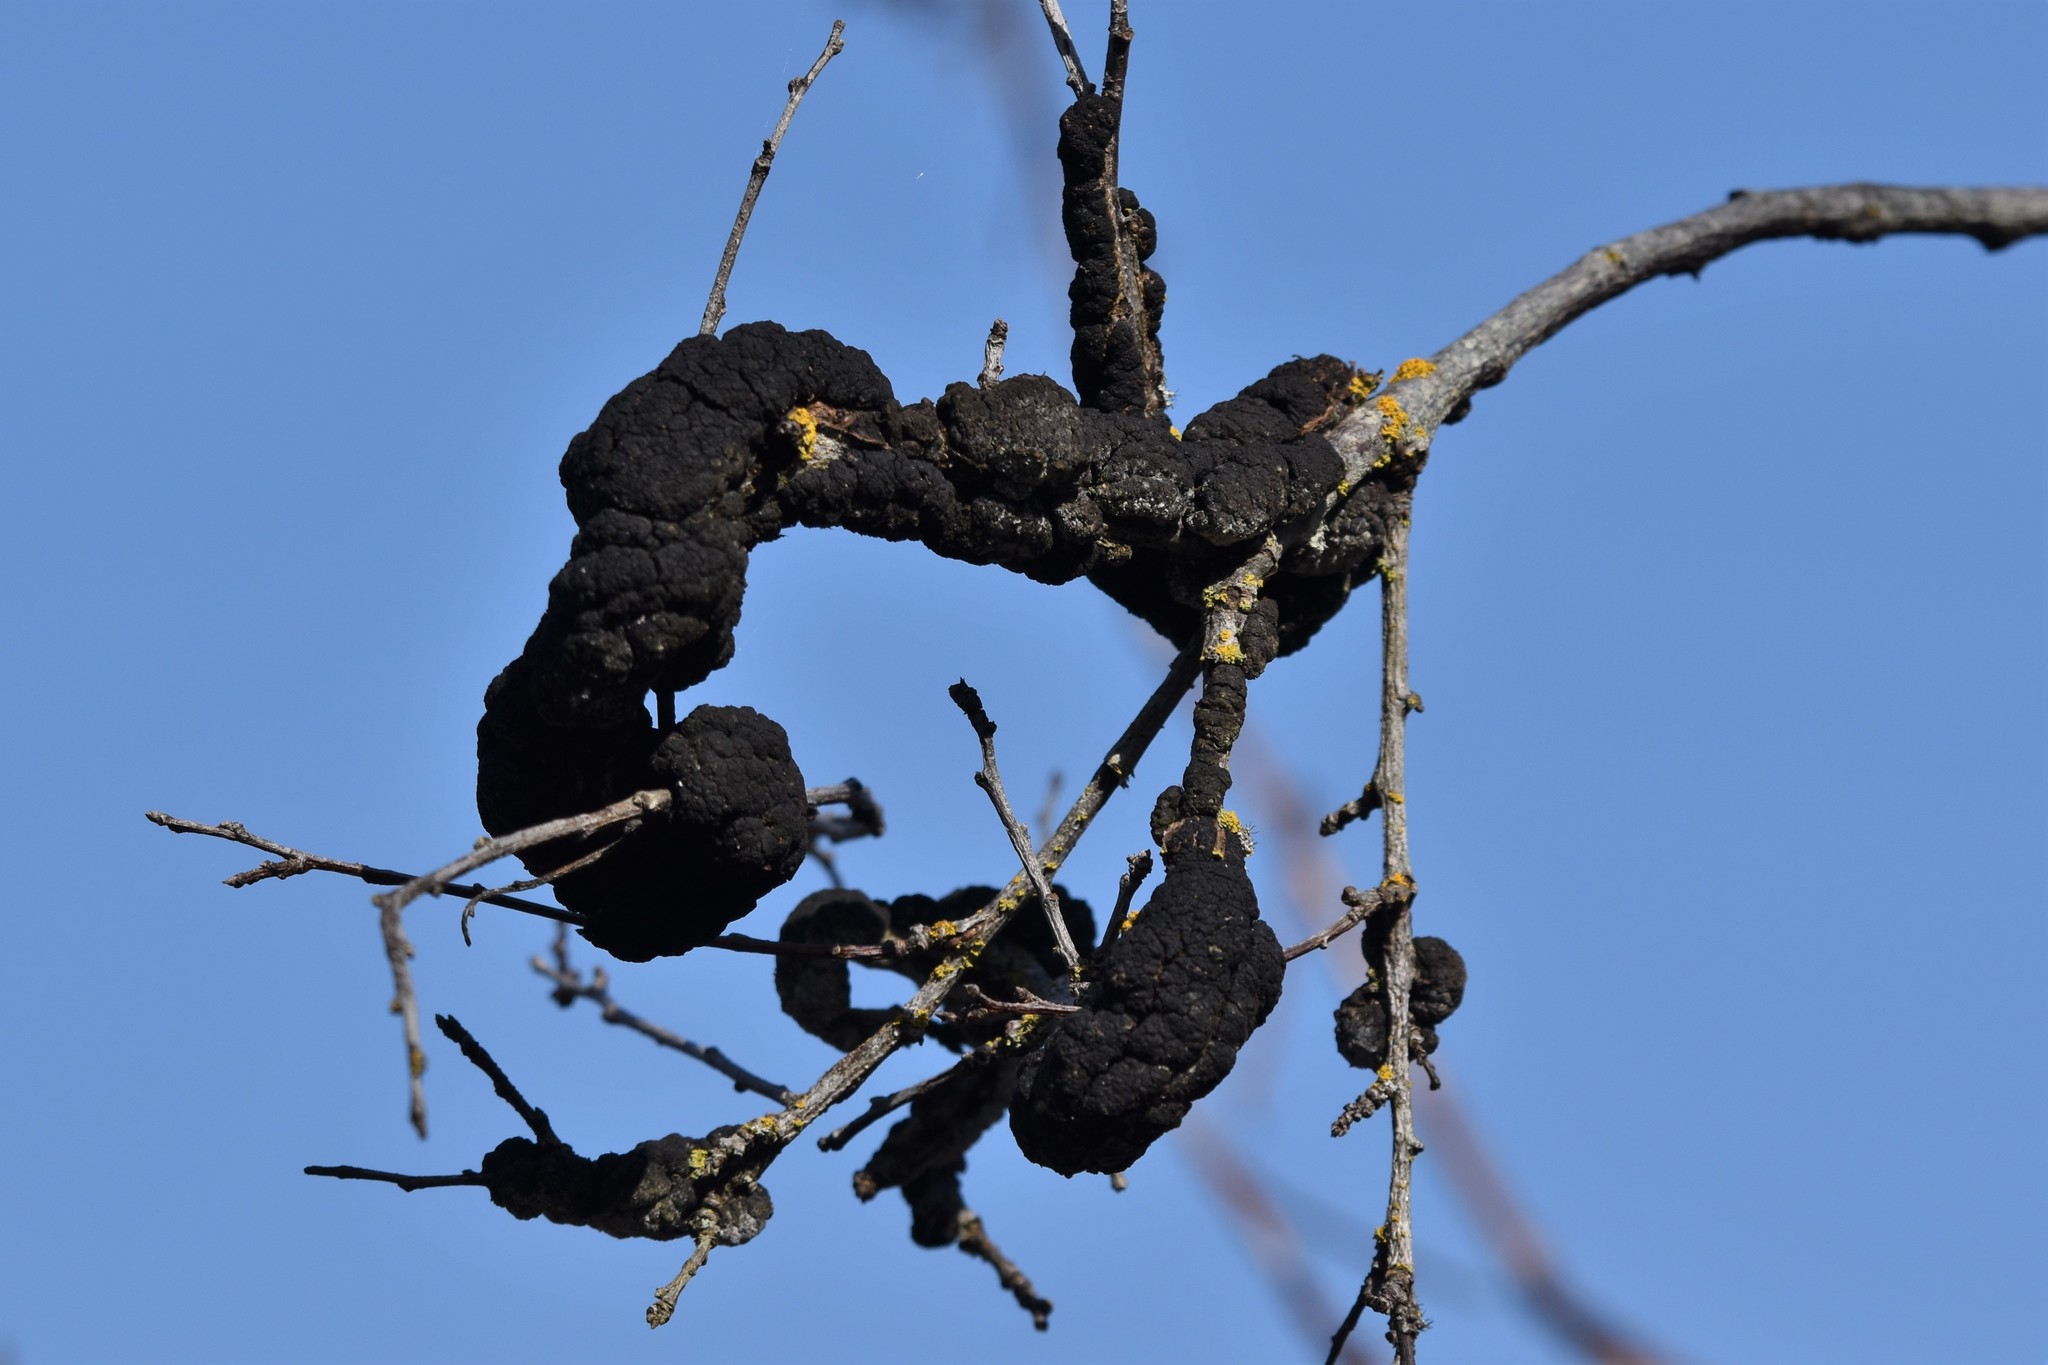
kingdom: Fungi
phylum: Ascomycota
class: Dothideomycetes
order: Venturiales
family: Venturiaceae
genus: Apiosporina
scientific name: Apiosporina morbosa
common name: Black knot
